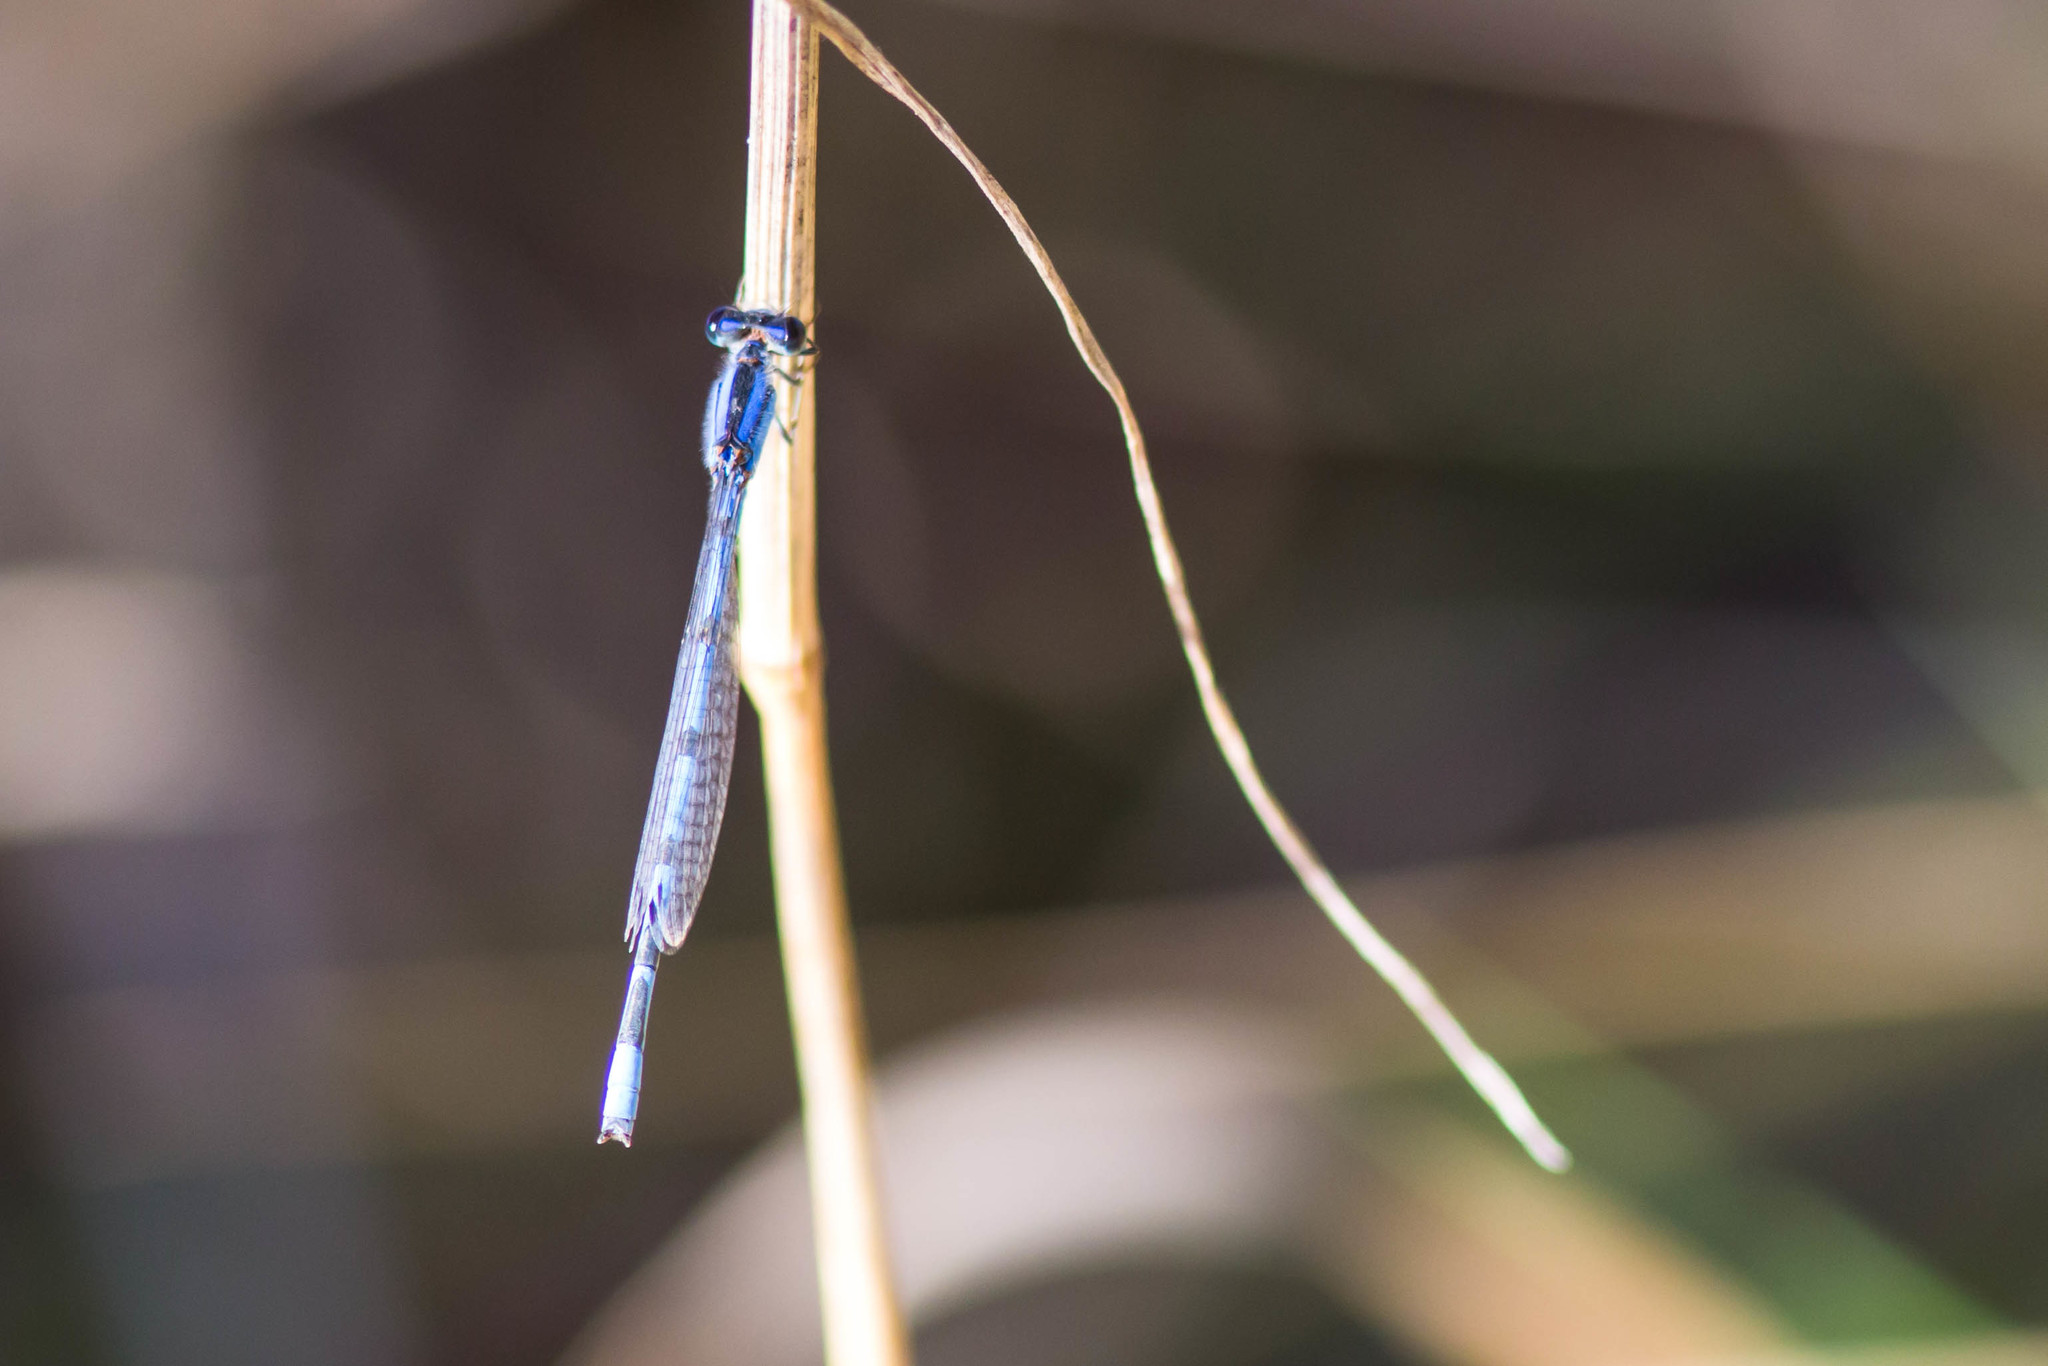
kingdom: Animalia
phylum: Arthropoda
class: Insecta
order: Odonata
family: Coenagrionidae
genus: Enallagma
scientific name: Enallagma civile
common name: Damselfly
